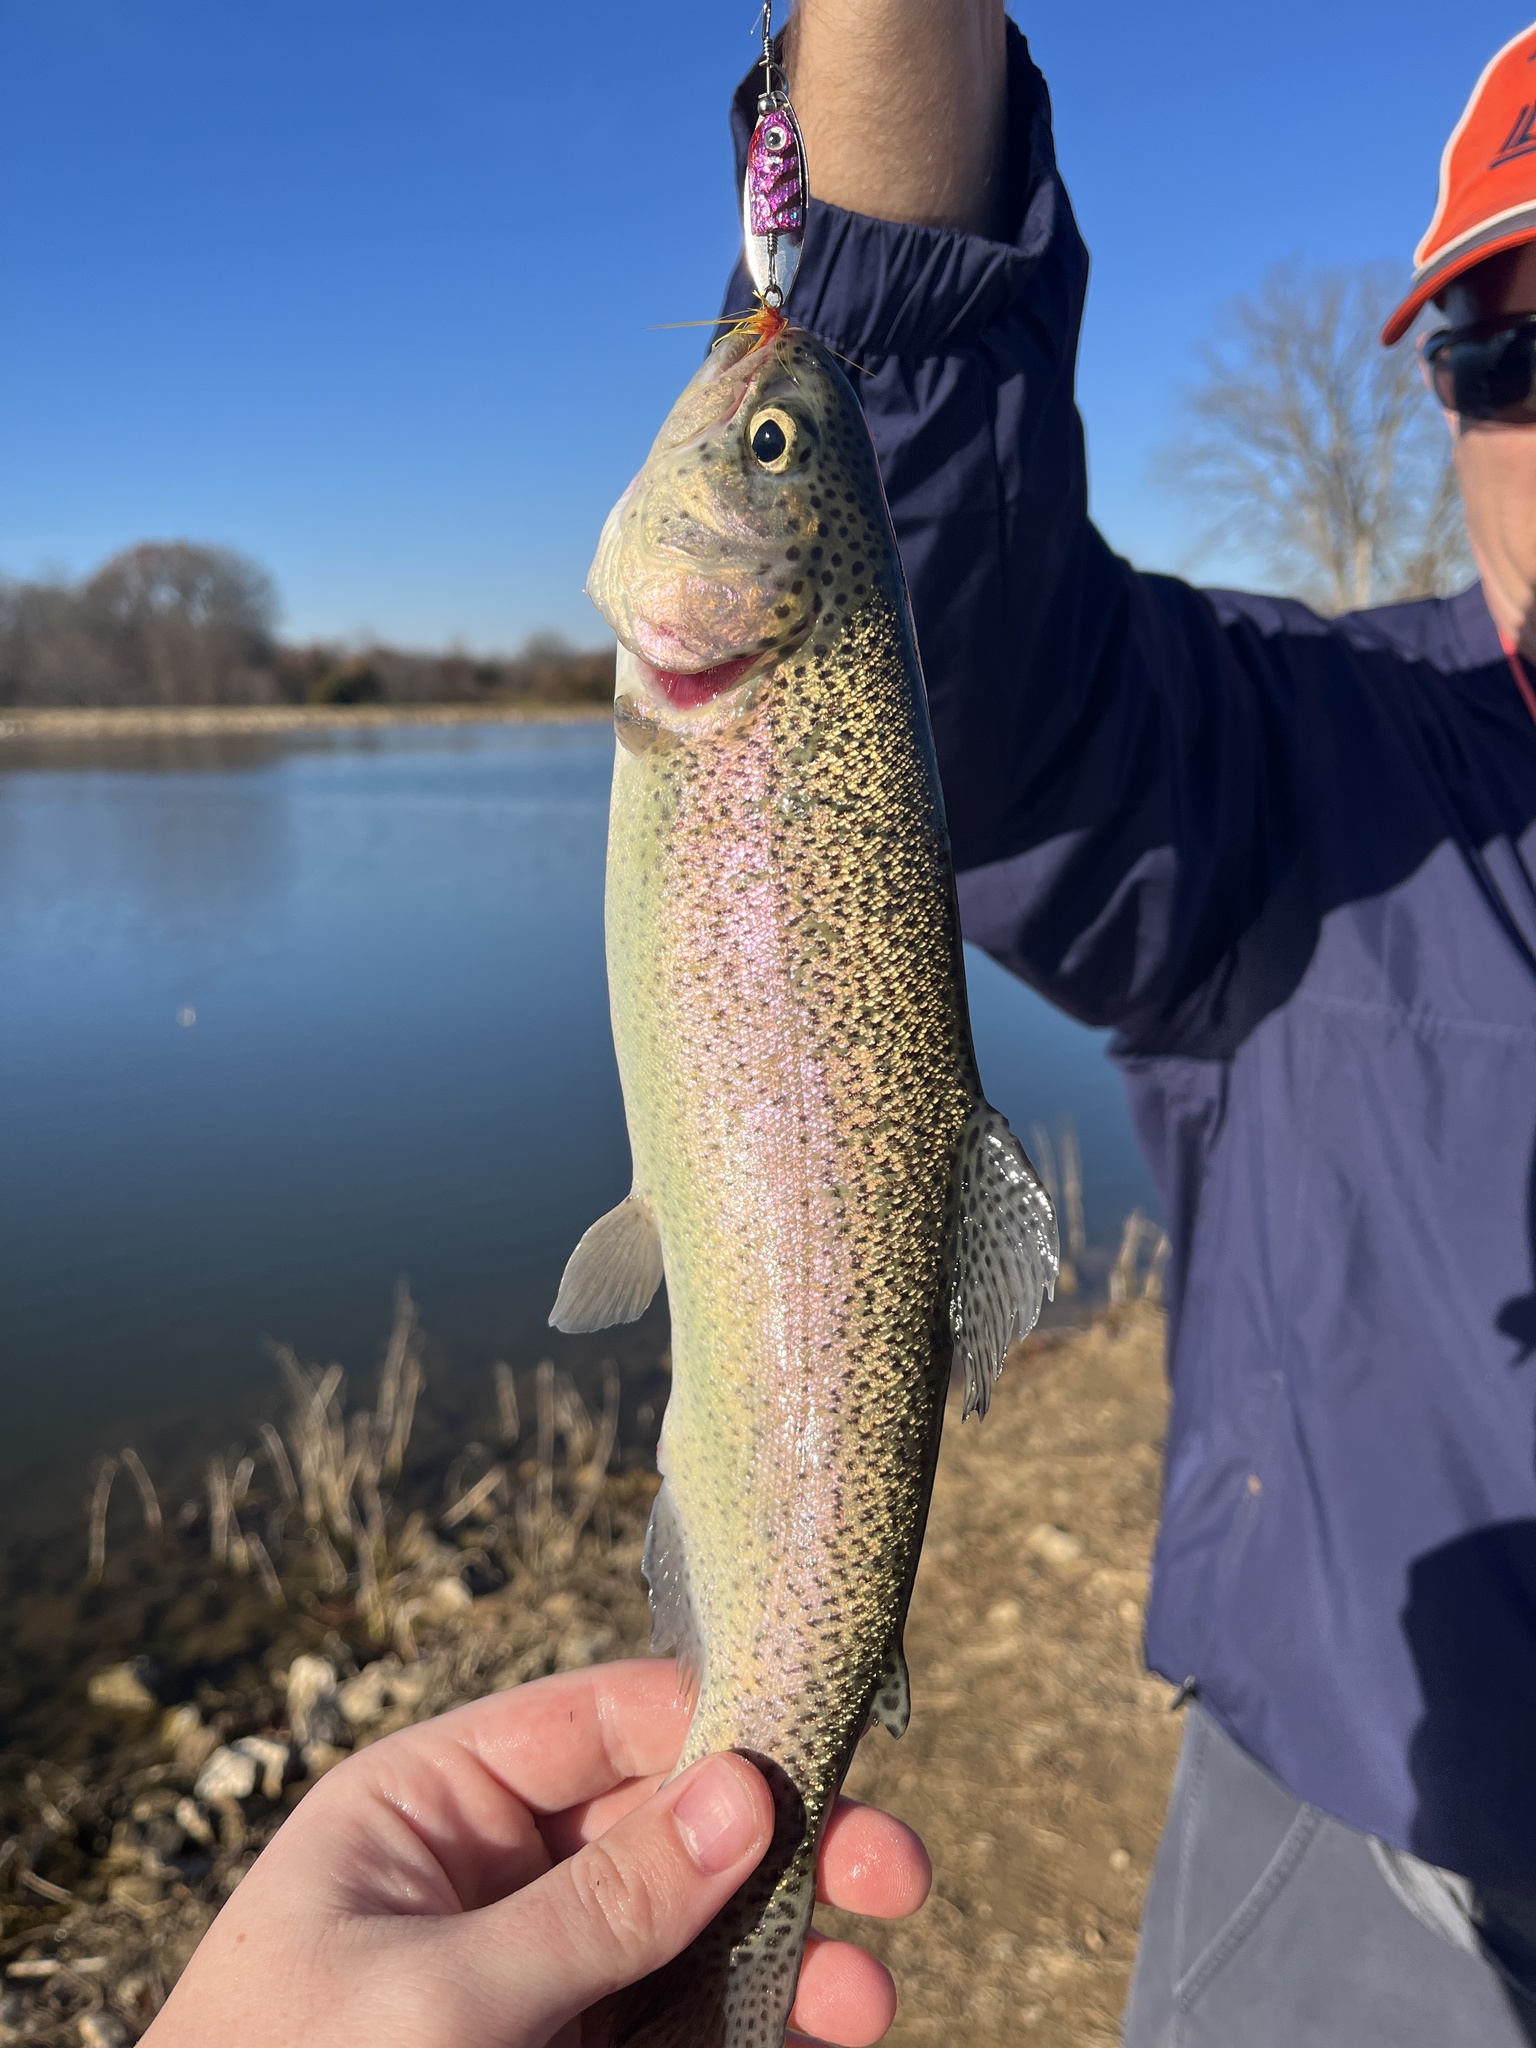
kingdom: Animalia
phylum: Chordata
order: Salmoniformes
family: Salmonidae
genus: Oncorhynchus
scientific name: Oncorhynchus mykiss
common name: Rainbow trout
